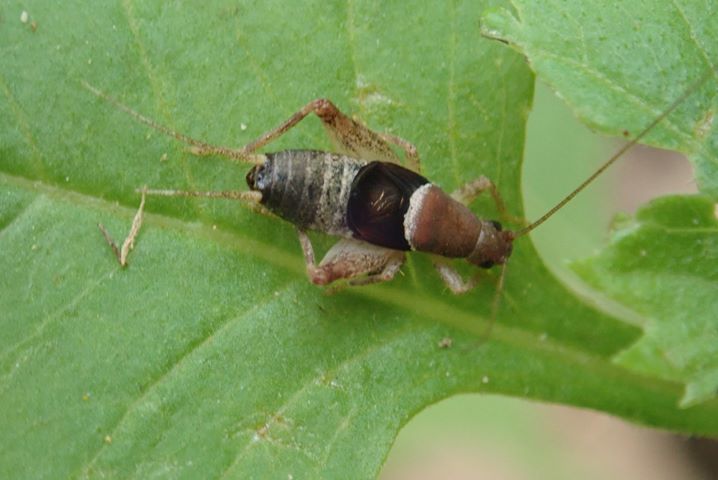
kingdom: Animalia
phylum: Arthropoda
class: Insecta
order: Orthoptera
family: Mogoplistidae
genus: Ornebius
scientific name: Ornebius infuscatus
